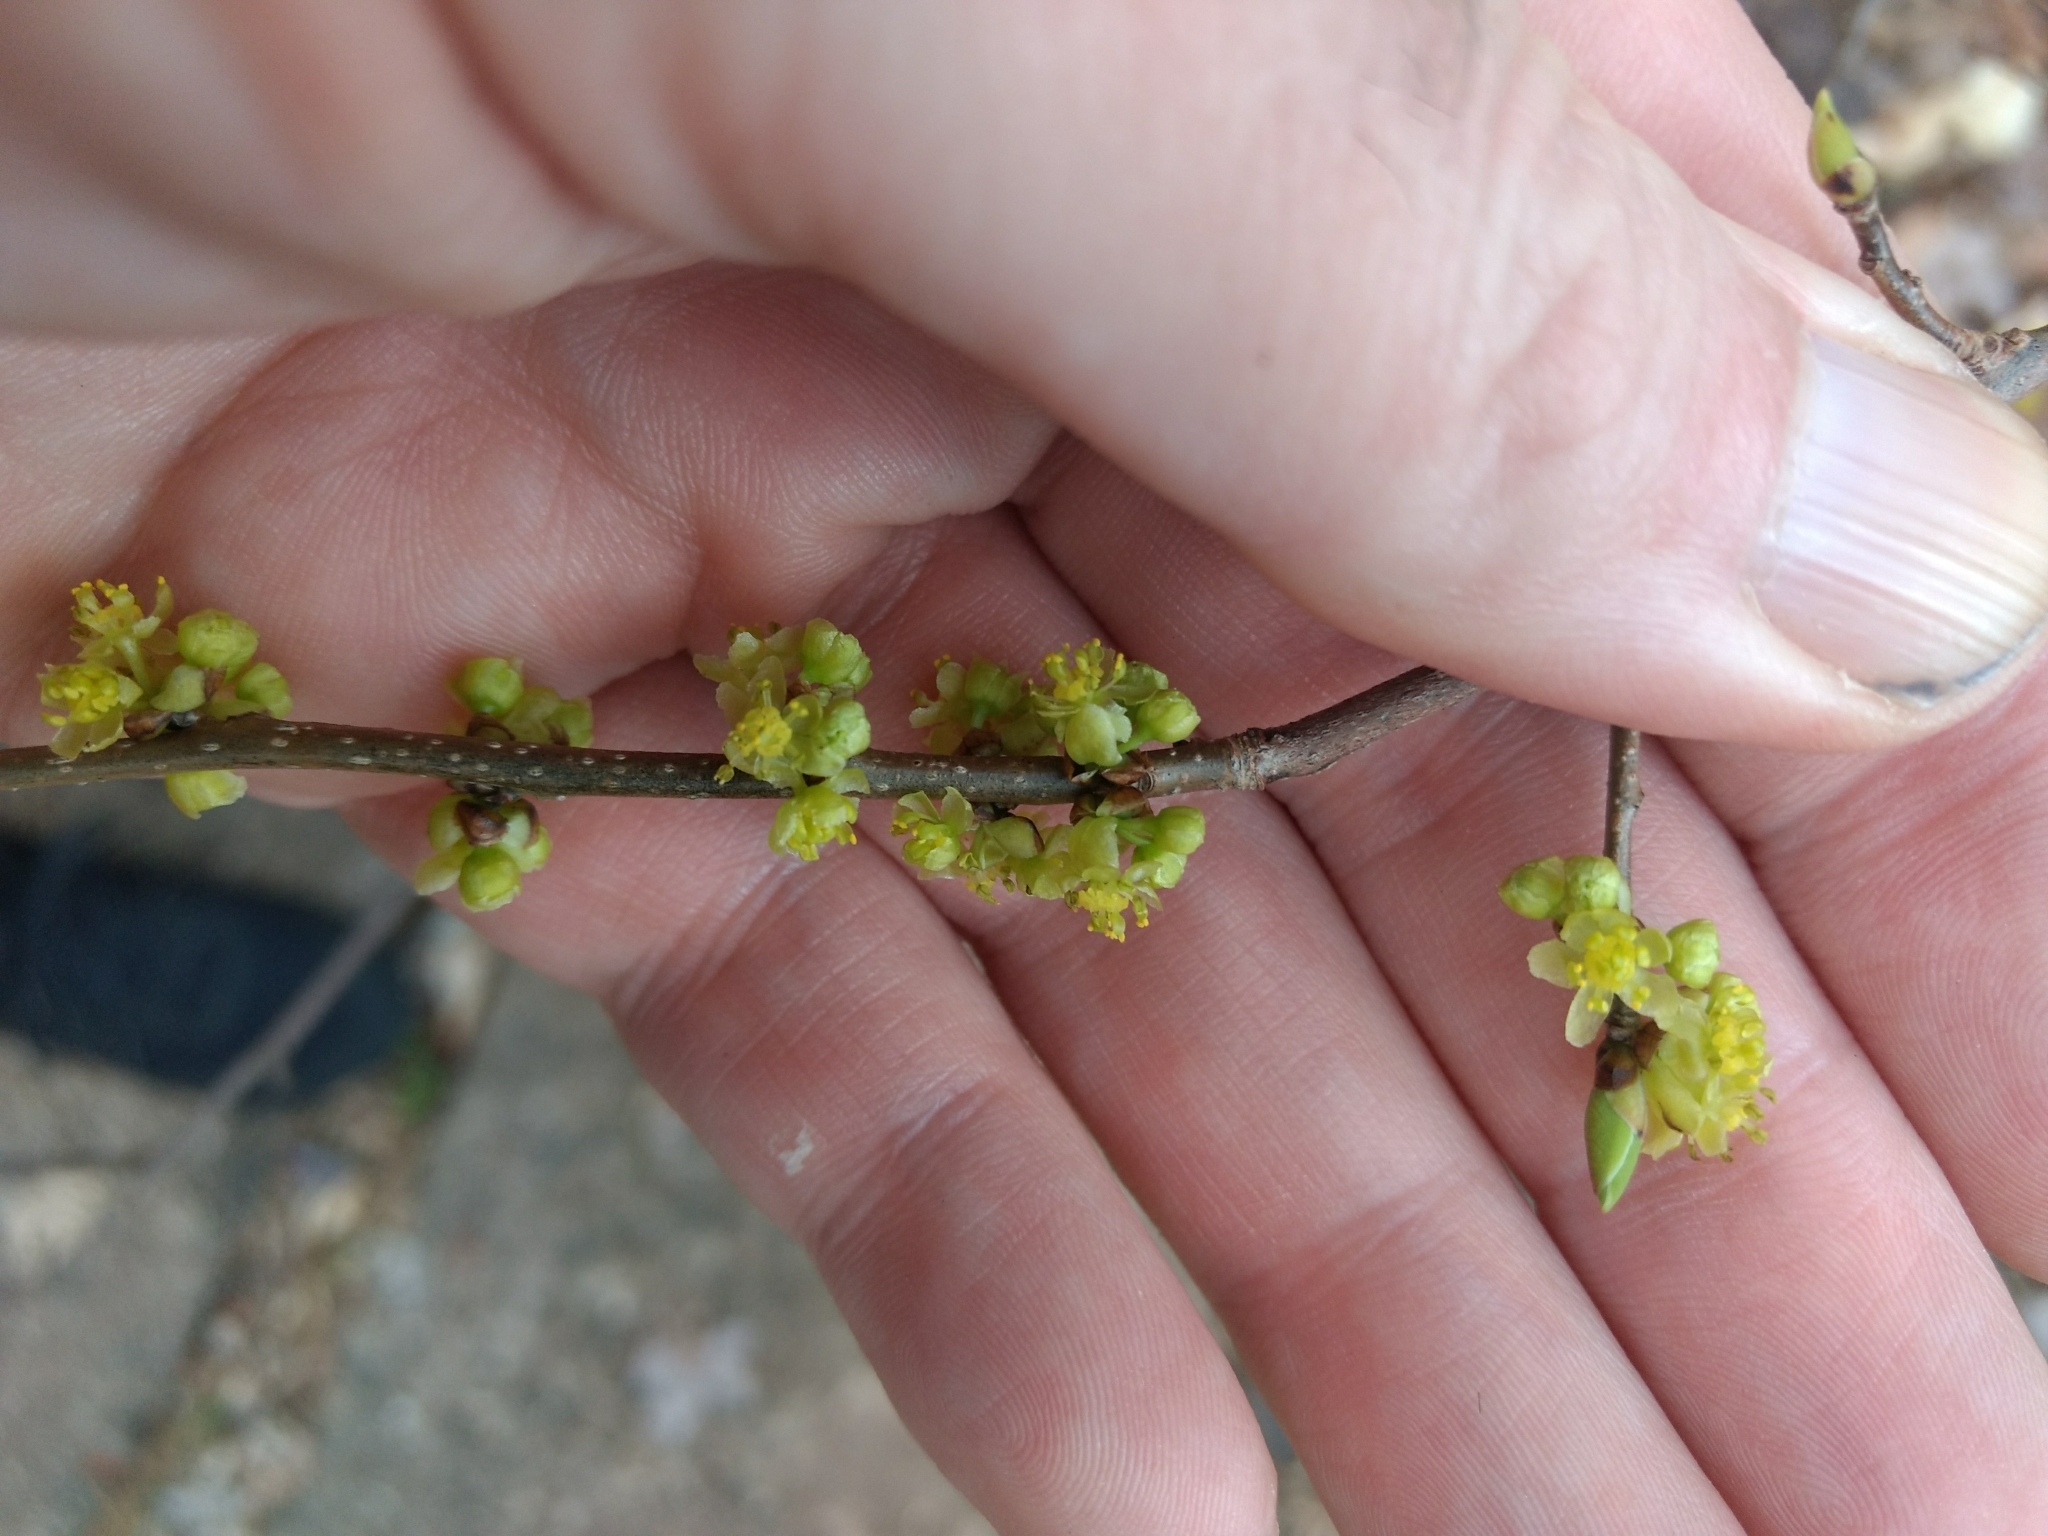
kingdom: Plantae
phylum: Tracheophyta
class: Magnoliopsida
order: Laurales
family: Lauraceae
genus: Lindera
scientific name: Lindera benzoin
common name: Spicebush
